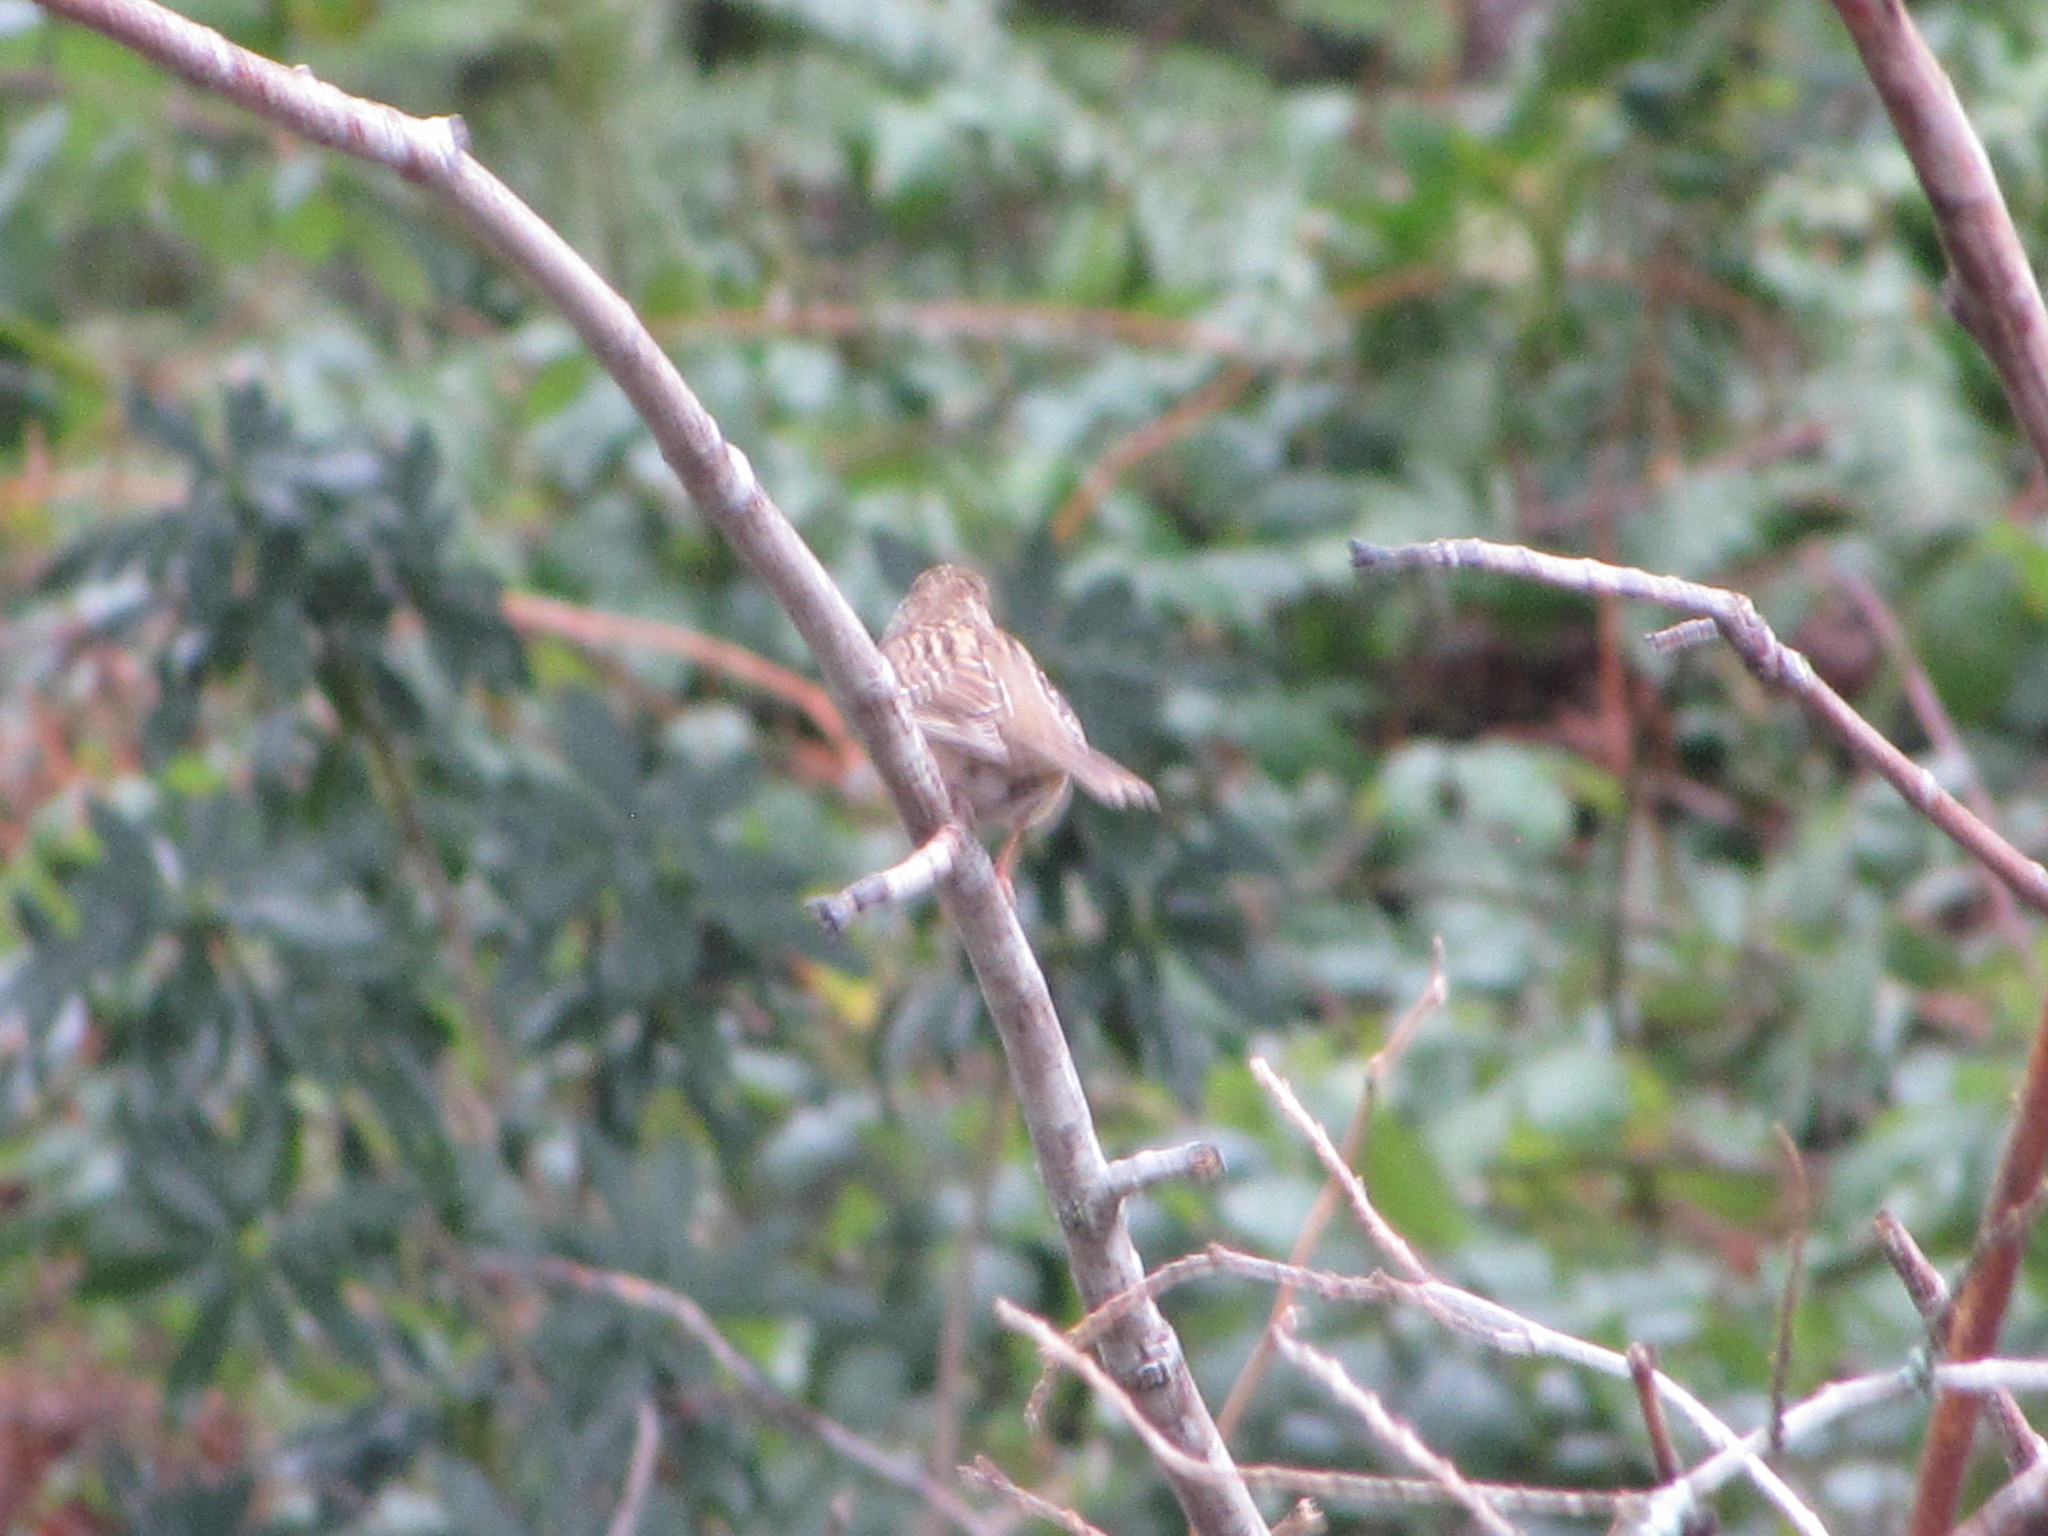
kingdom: Animalia
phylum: Chordata
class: Aves
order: Passeriformes
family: Passerellidae
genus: Zonotrichia
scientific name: Zonotrichia atricapilla
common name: Golden-crowned sparrow
